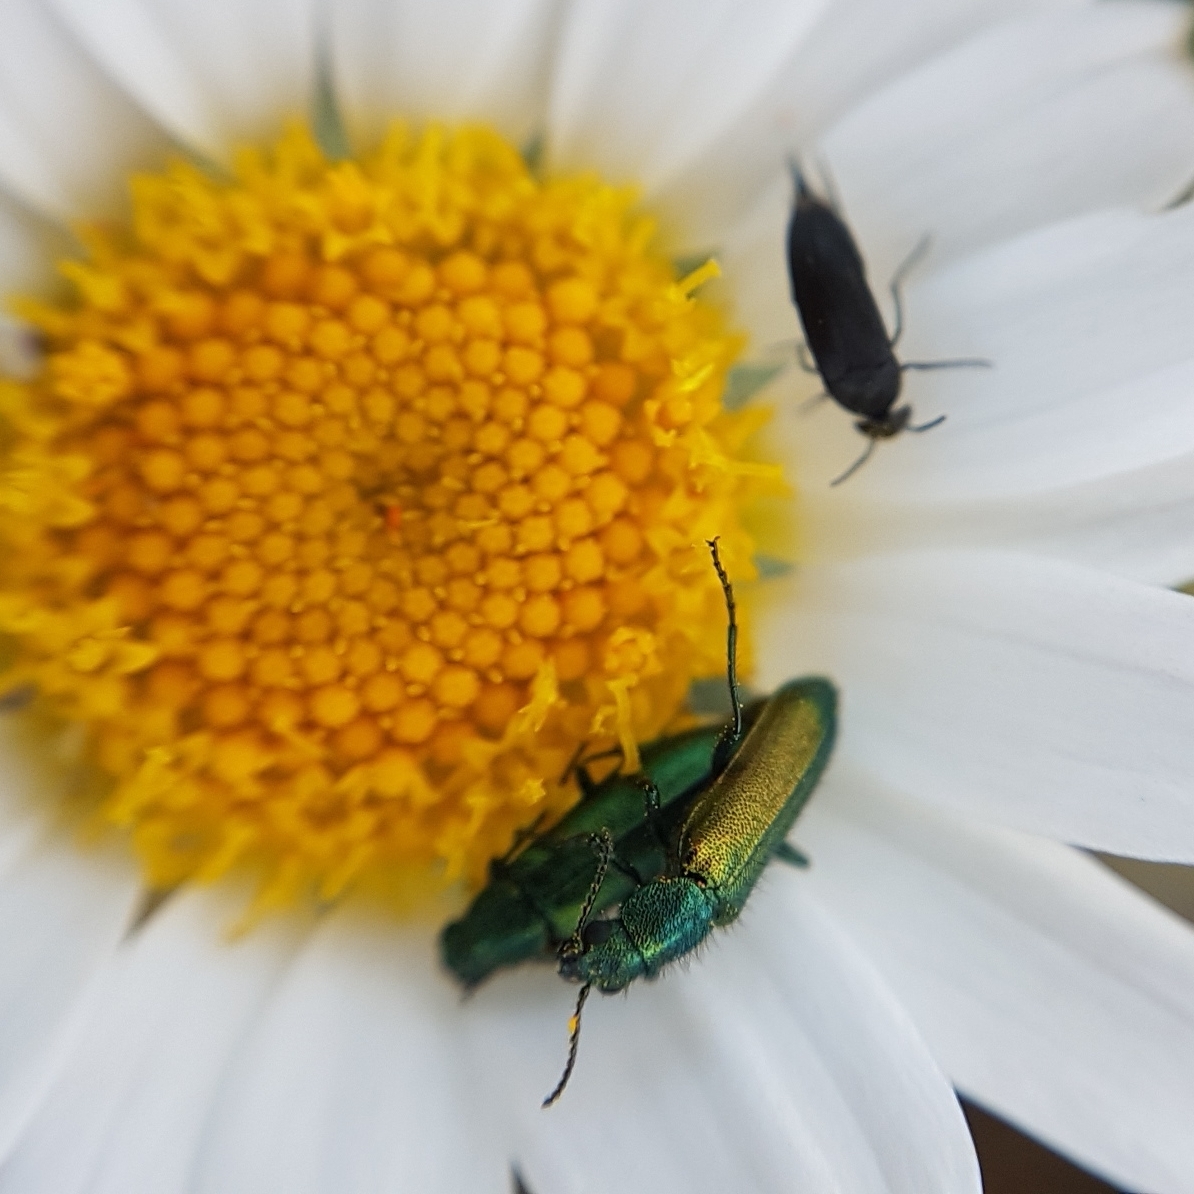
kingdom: Animalia
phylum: Arthropoda
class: Insecta
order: Coleoptera
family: Dasytidae
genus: Psilothrix
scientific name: Psilothrix viridicoerulea
